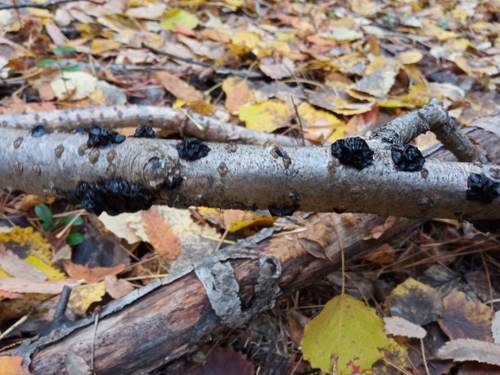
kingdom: Fungi
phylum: Basidiomycota
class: Agaricomycetes
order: Auriculariales
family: Auriculariaceae
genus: Exidia
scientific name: Exidia glandulosa
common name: Witches' butter
